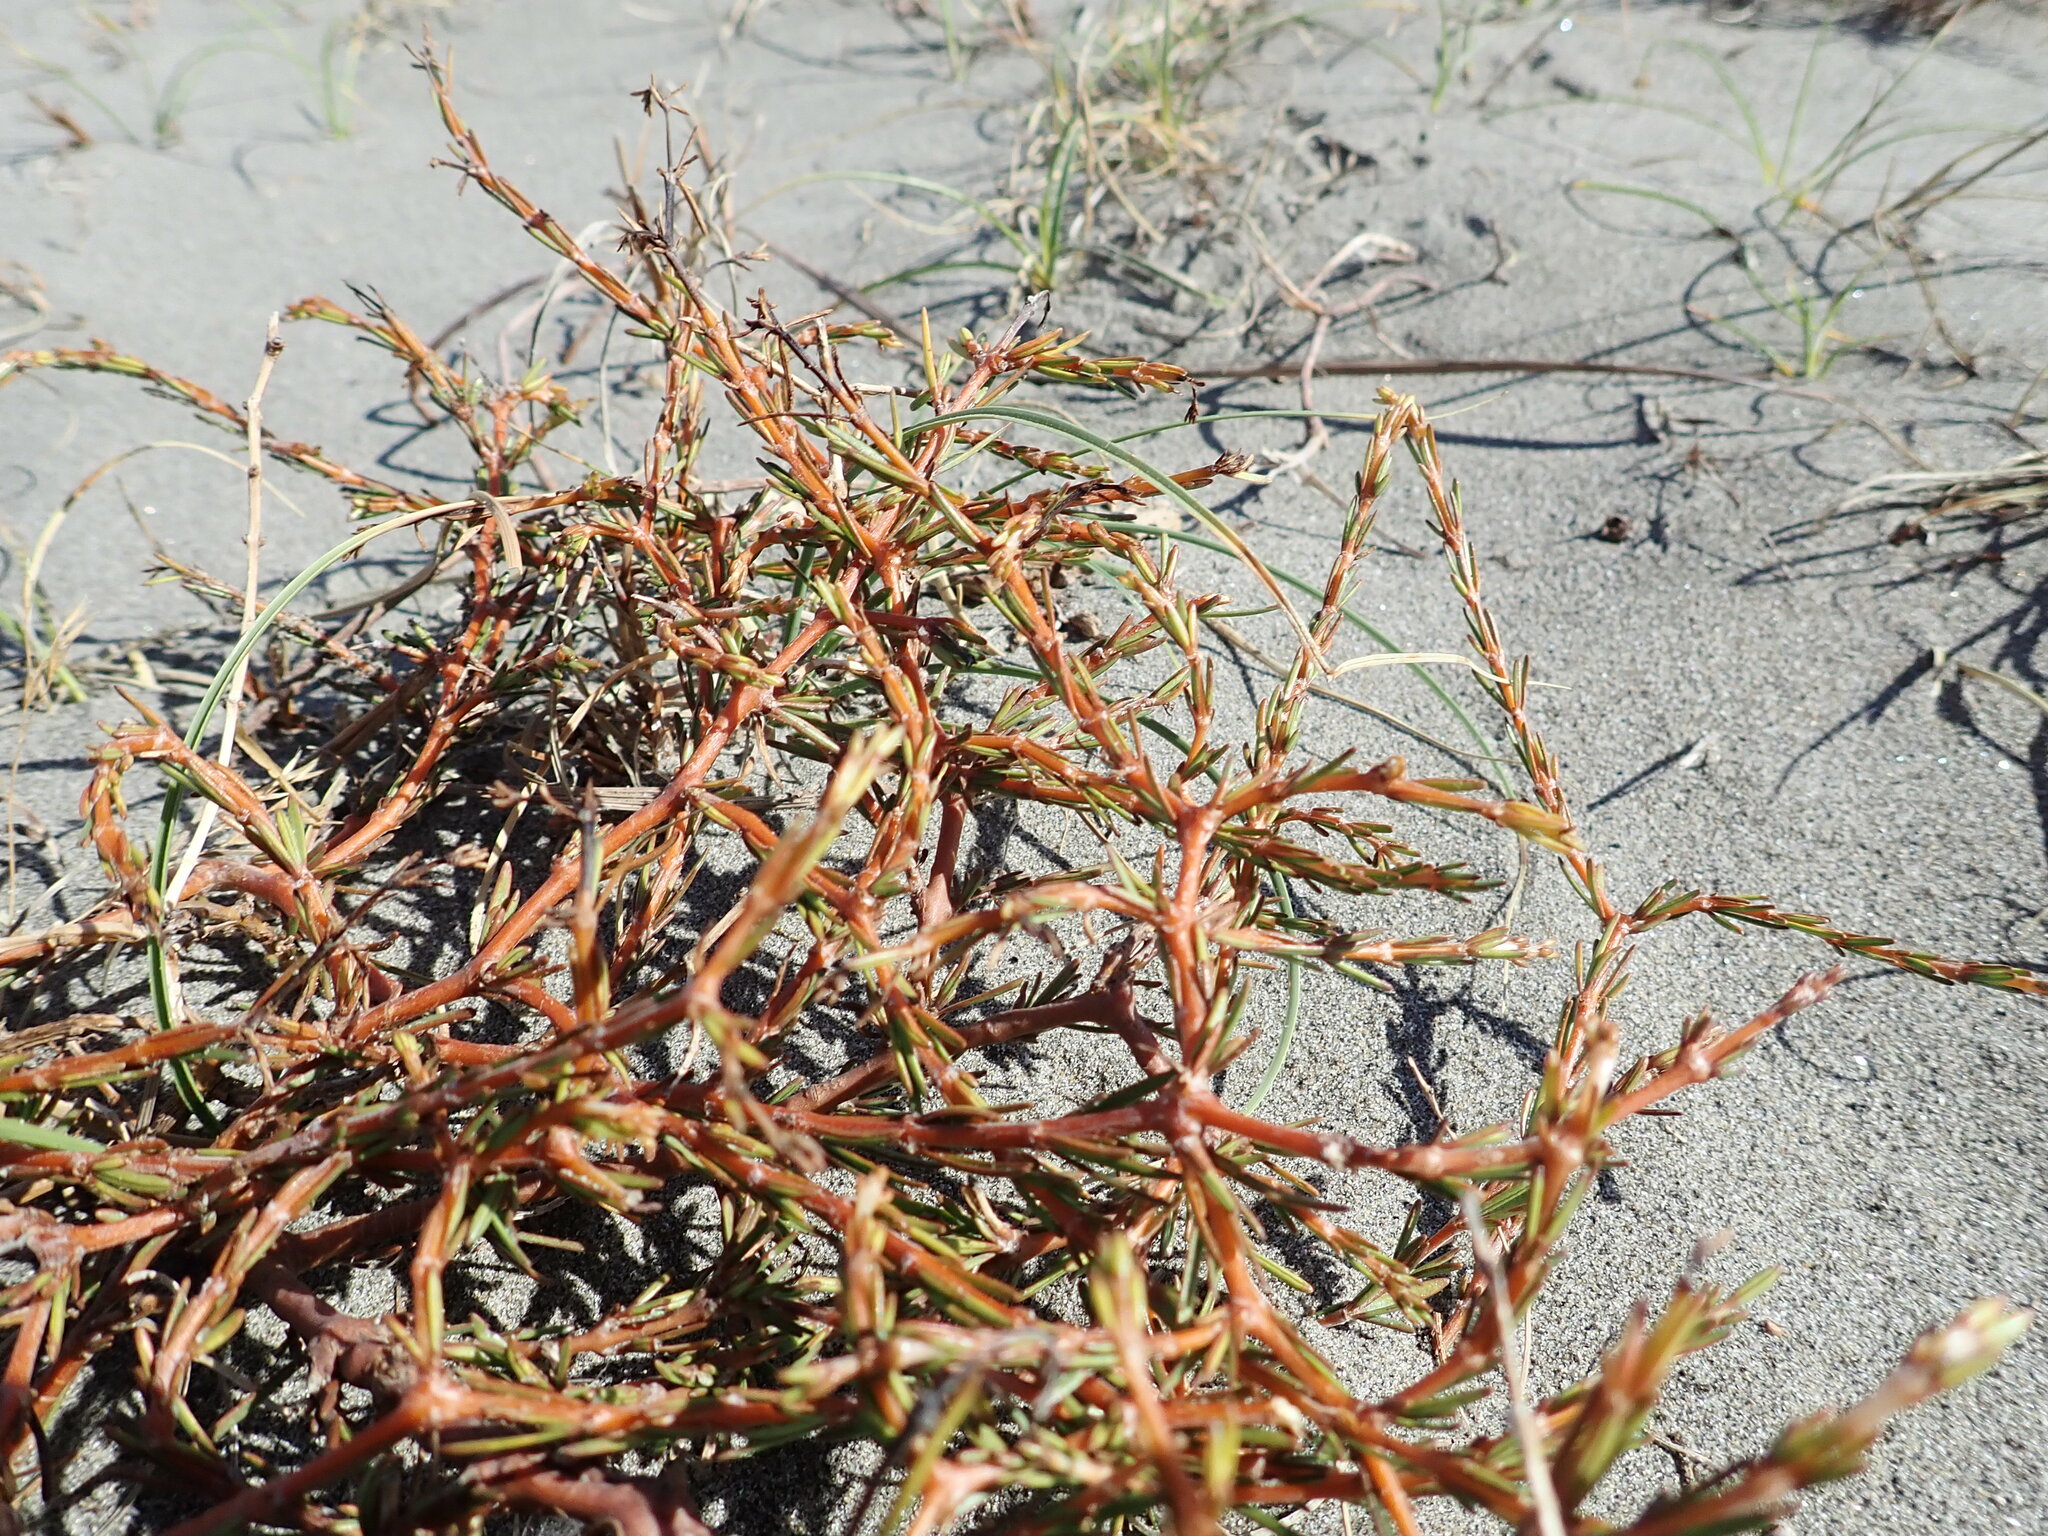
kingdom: Plantae
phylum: Tracheophyta
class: Magnoliopsida
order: Gentianales
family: Rubiaceae
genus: Coprosma
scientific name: Coprosma acerosa
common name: Sand coprosma
